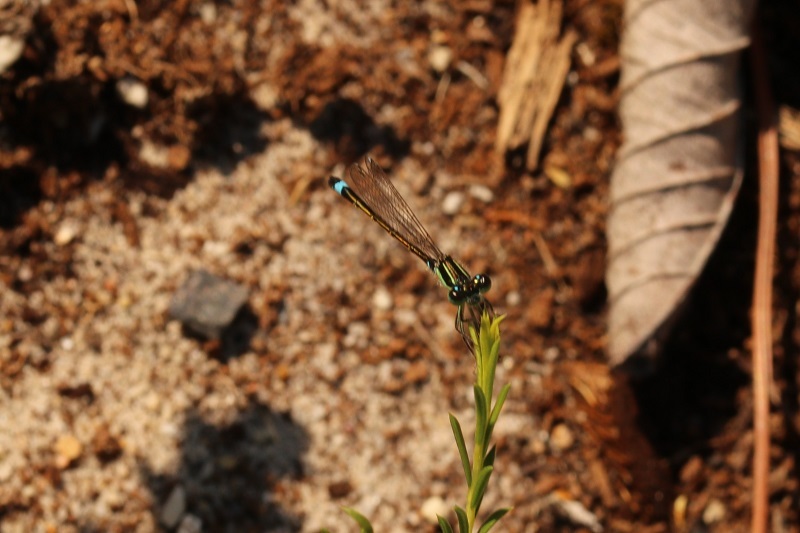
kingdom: Animalia
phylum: Arthropoda
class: Insecta
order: Odonata
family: Coenagrionidae
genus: Ischnura
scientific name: Ischnura senegalensis
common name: Tropical bluetail
